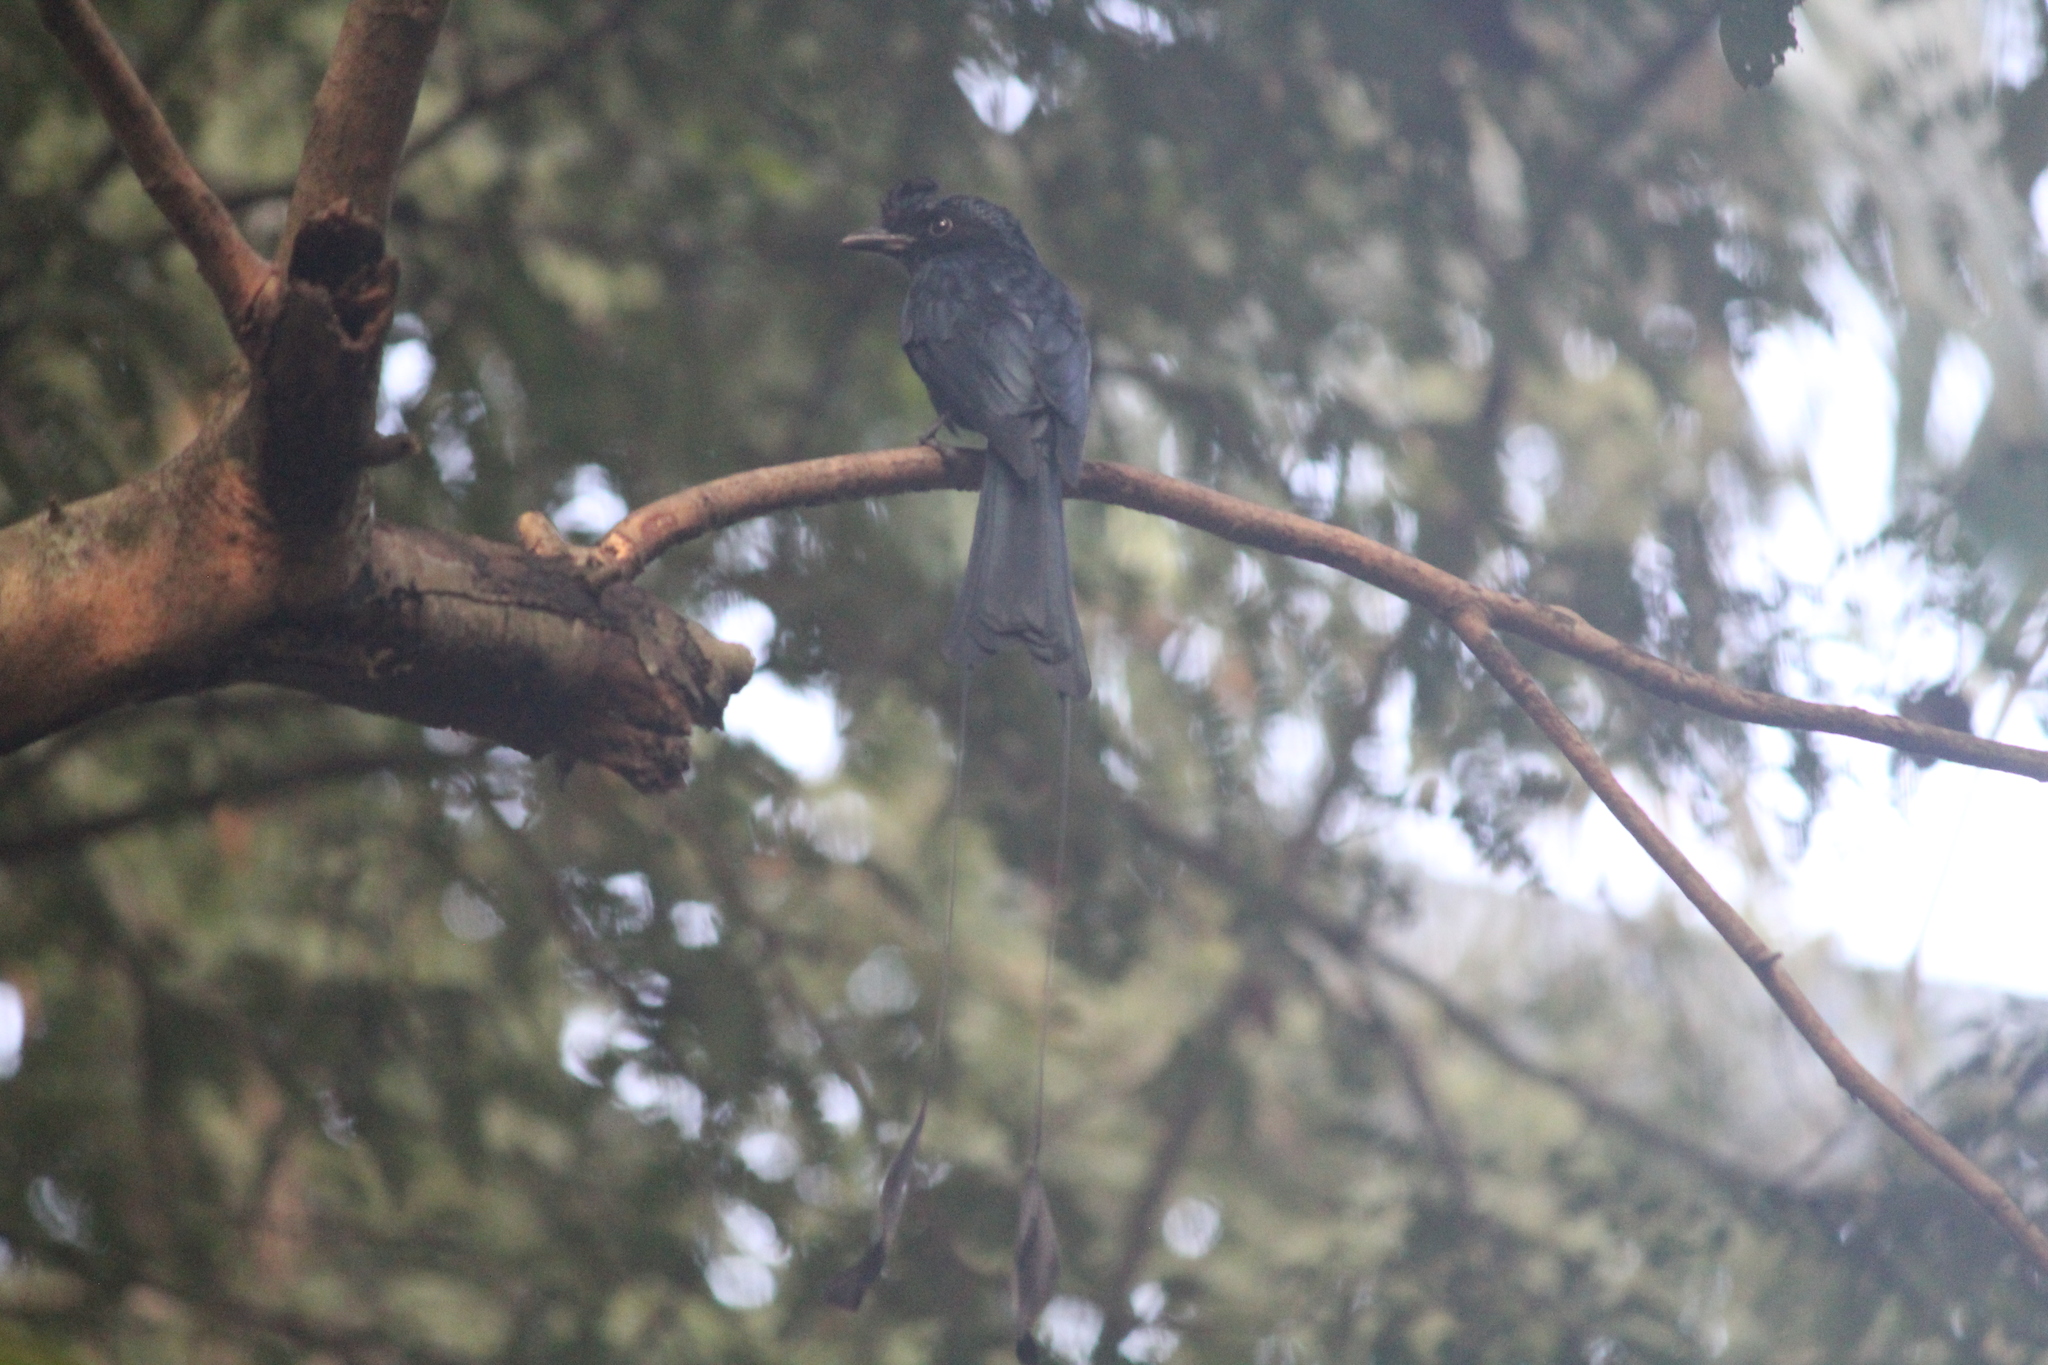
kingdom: Animalia
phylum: Chordata
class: Aves
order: Passeriformes
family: Dicruridae
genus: Dicrurus
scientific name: Dicrurus paradiseus
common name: Greater racket-tailed drongo
